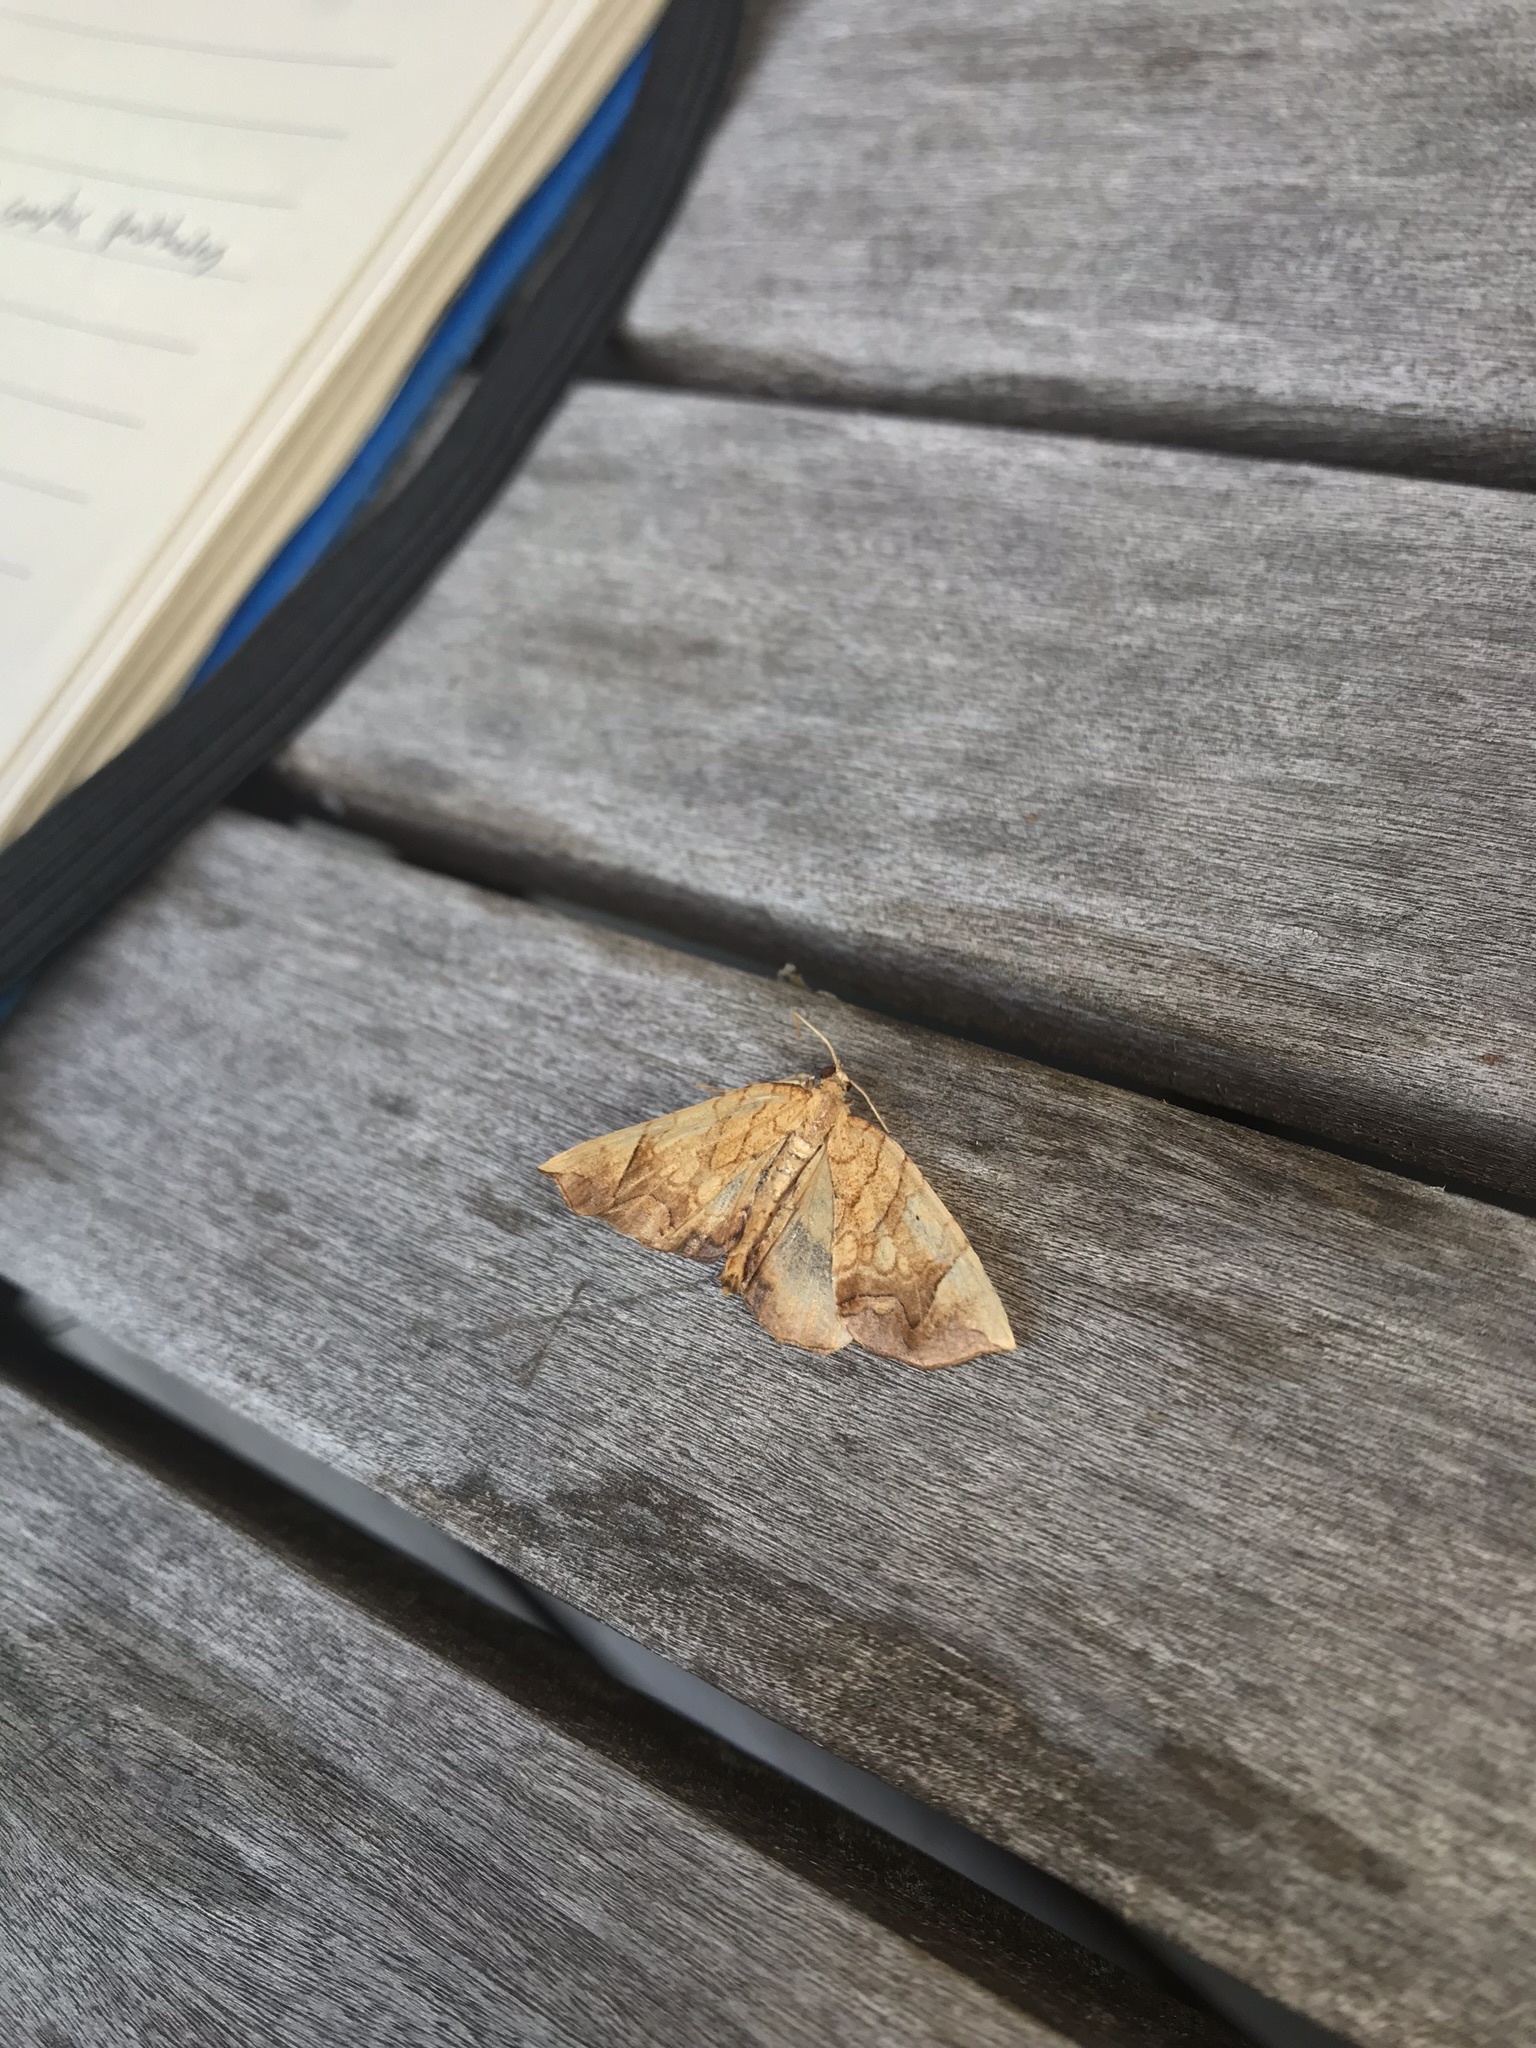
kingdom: Animalia
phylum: Arthropoda
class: Insecta
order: Lepidoptera
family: Geometridae
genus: Eulithis
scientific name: Eulithis gracilineata
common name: Greater grapevine looper moth
